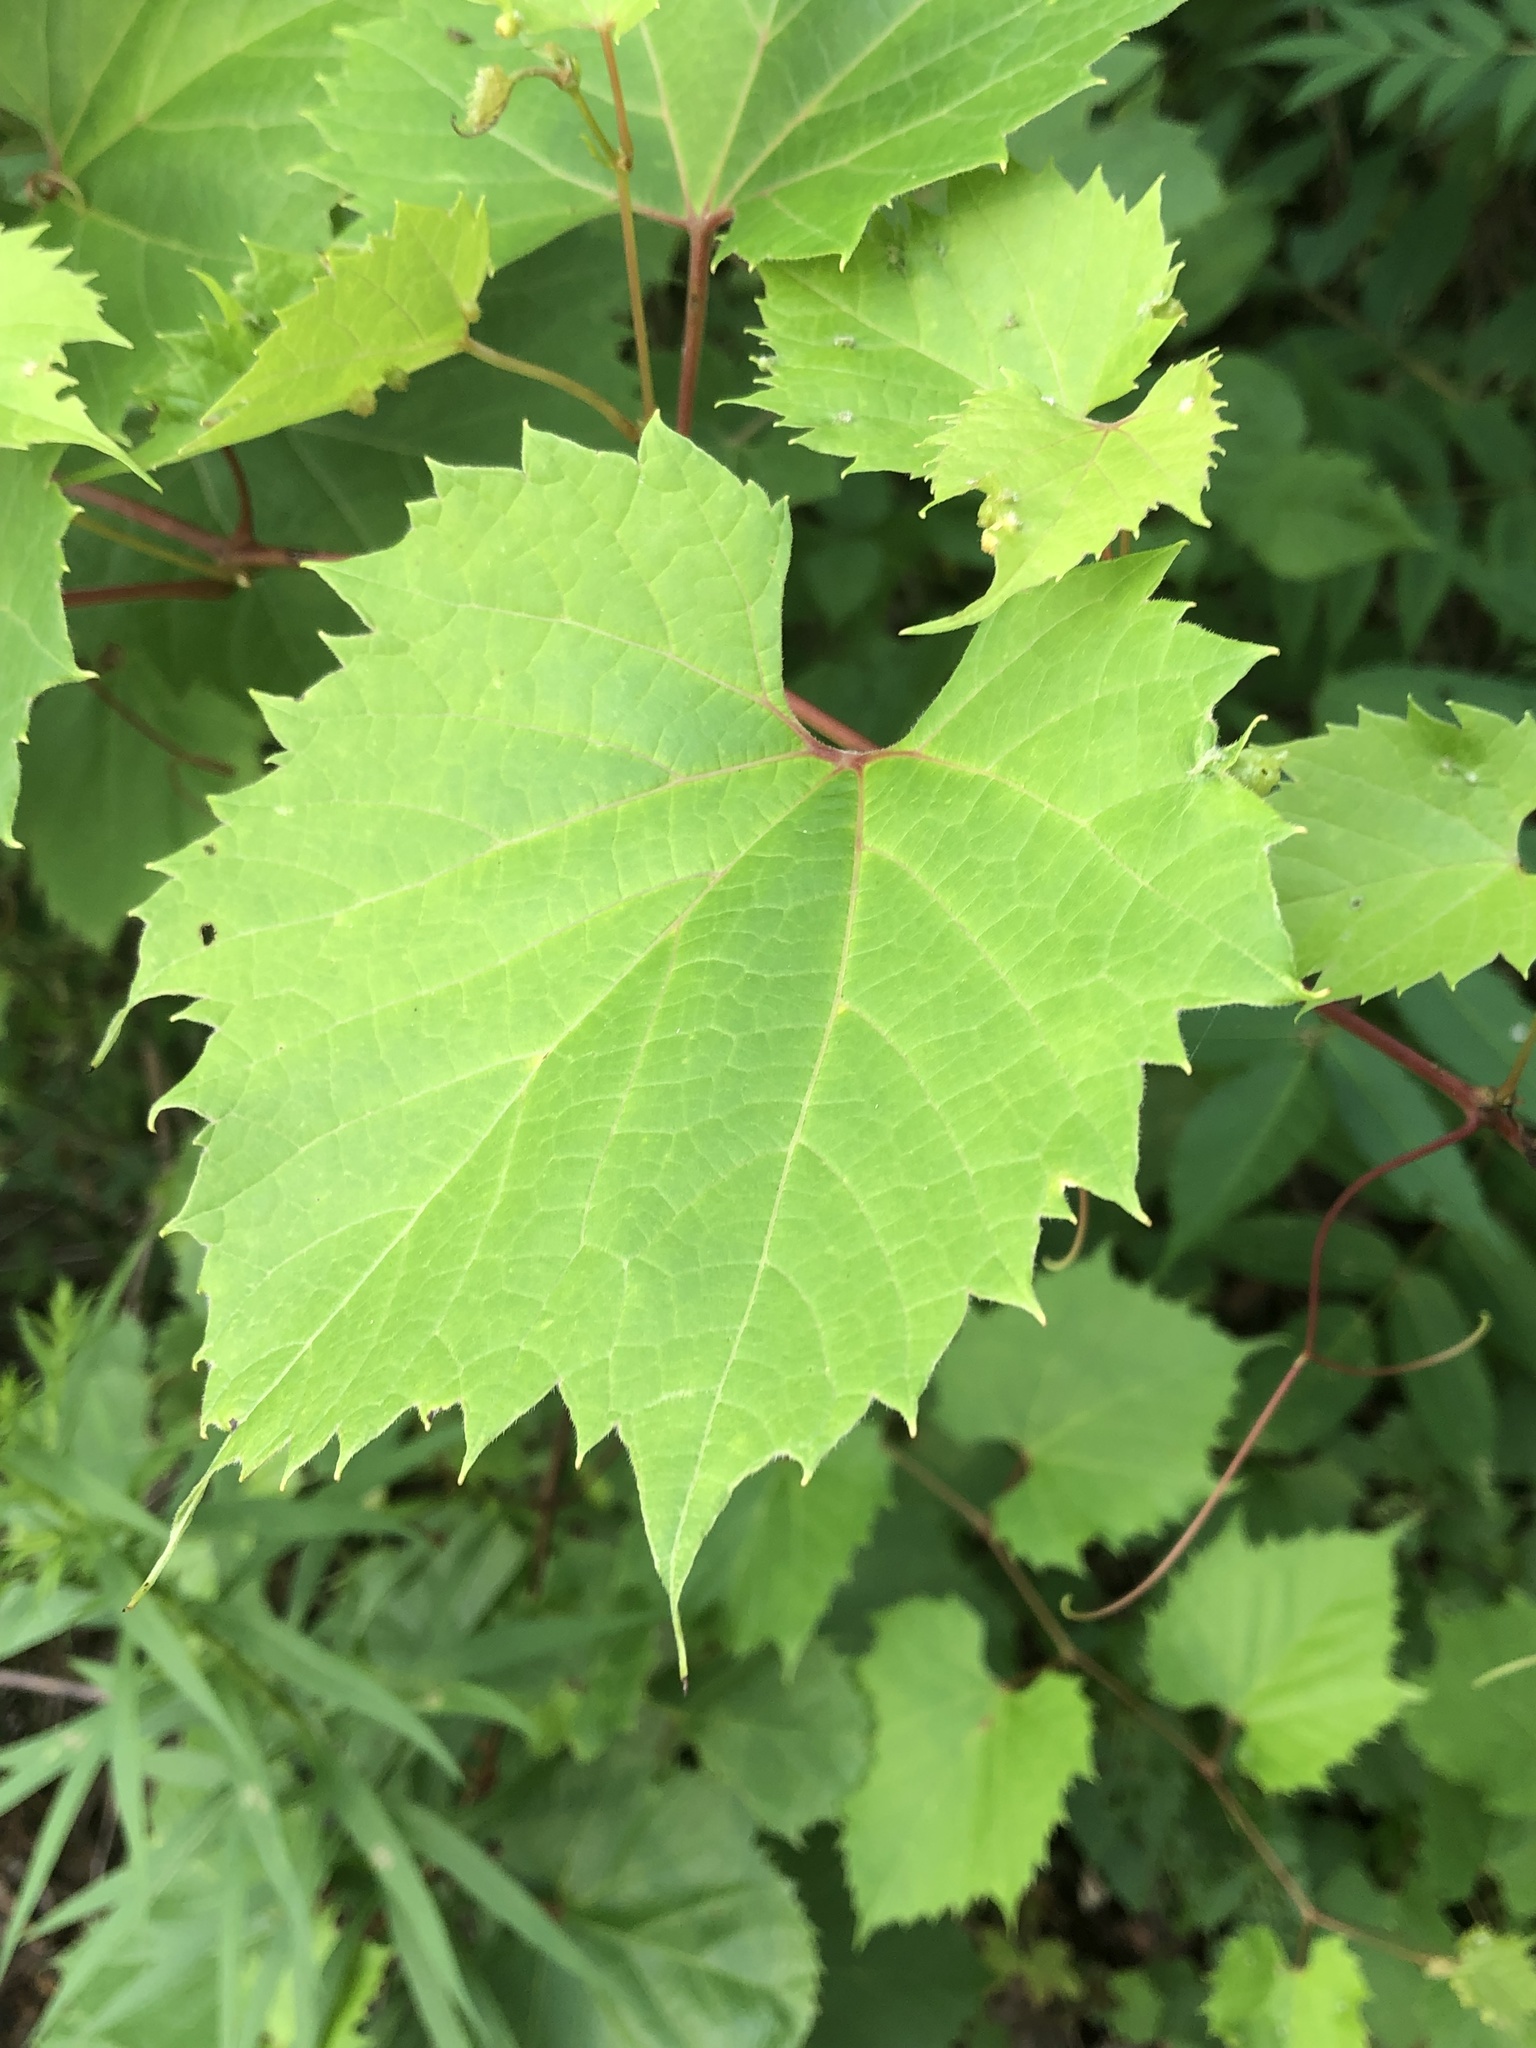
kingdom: Plantae
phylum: Tracheophyta
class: Magnoliopsida
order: Vitales
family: Vitaceae
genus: Vitis
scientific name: Vitis riparia
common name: Frost grape
